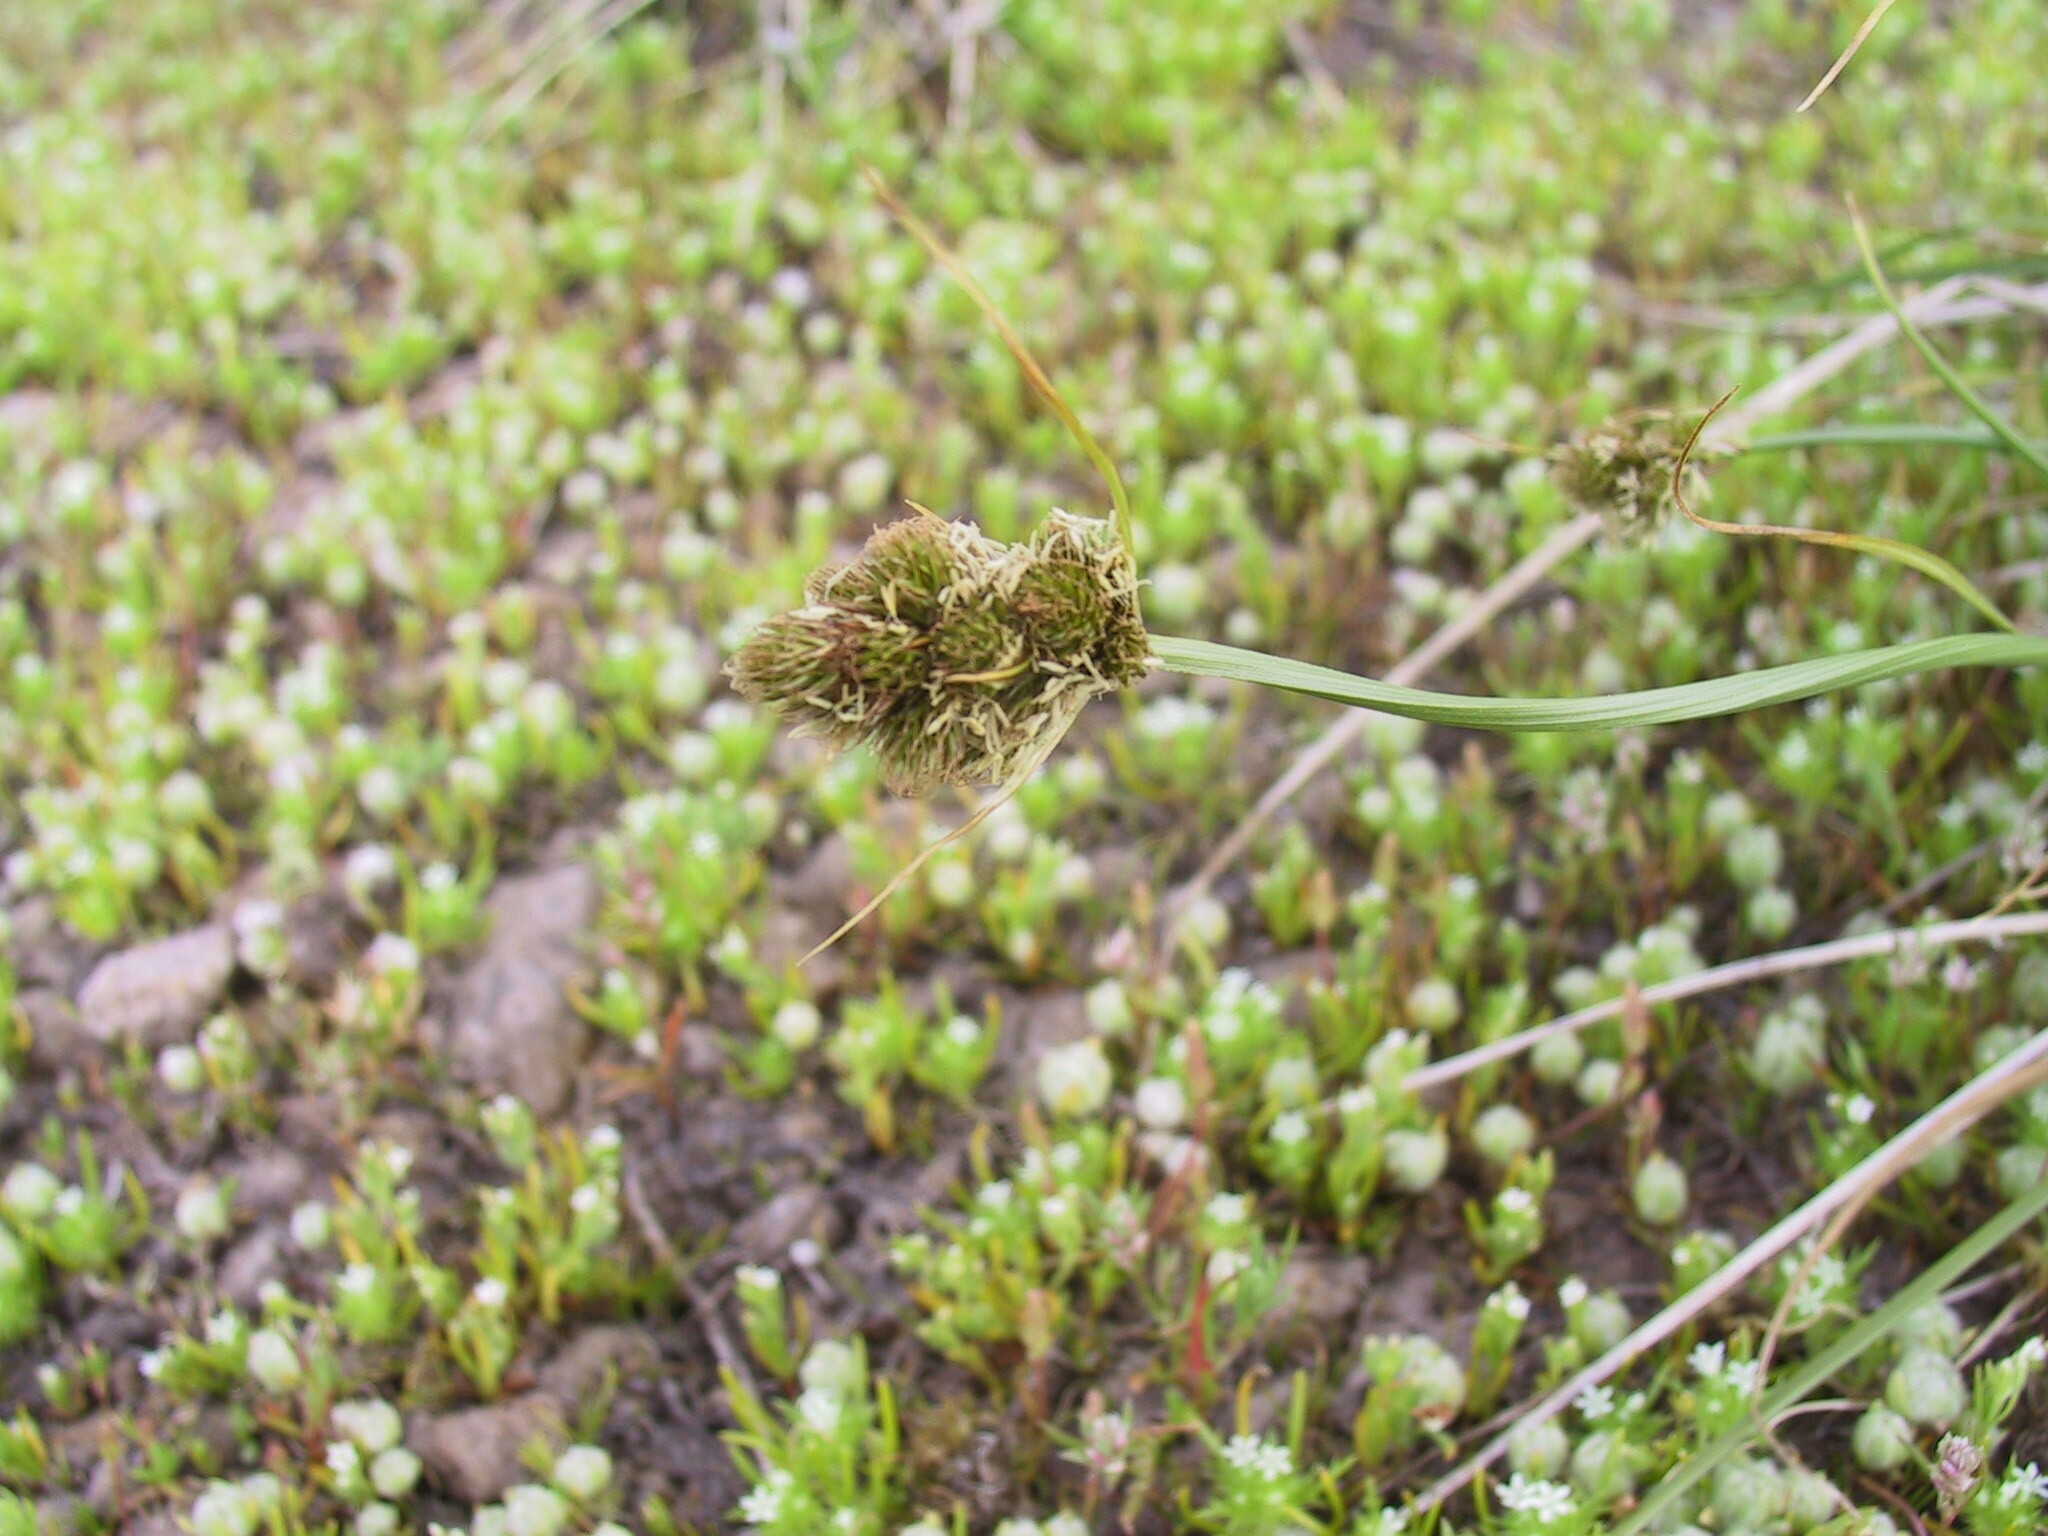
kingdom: Plantae
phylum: Tracheophyta
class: Liliopsida
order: Poales
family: Cyperaceae
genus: Carex
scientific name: Carex athrostachya
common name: Slenderbeak sedge
